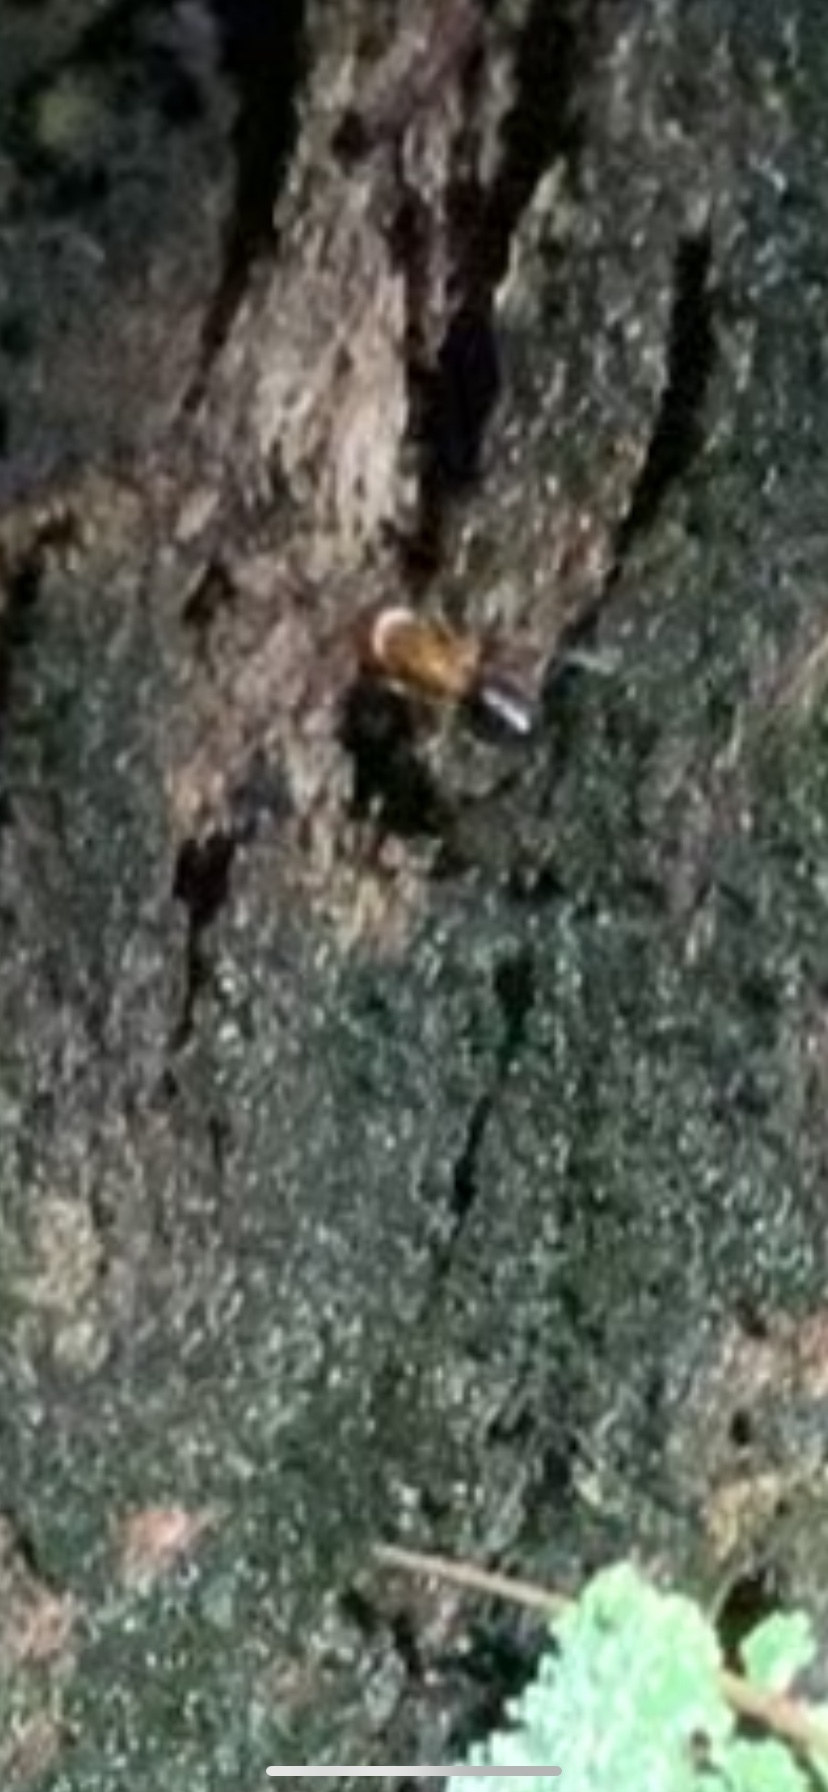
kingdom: Animalia
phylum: Arthropoda
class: Insecta
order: Hymenoptera
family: Formicidae
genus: Camponotus
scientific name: Camponotus floridanus
